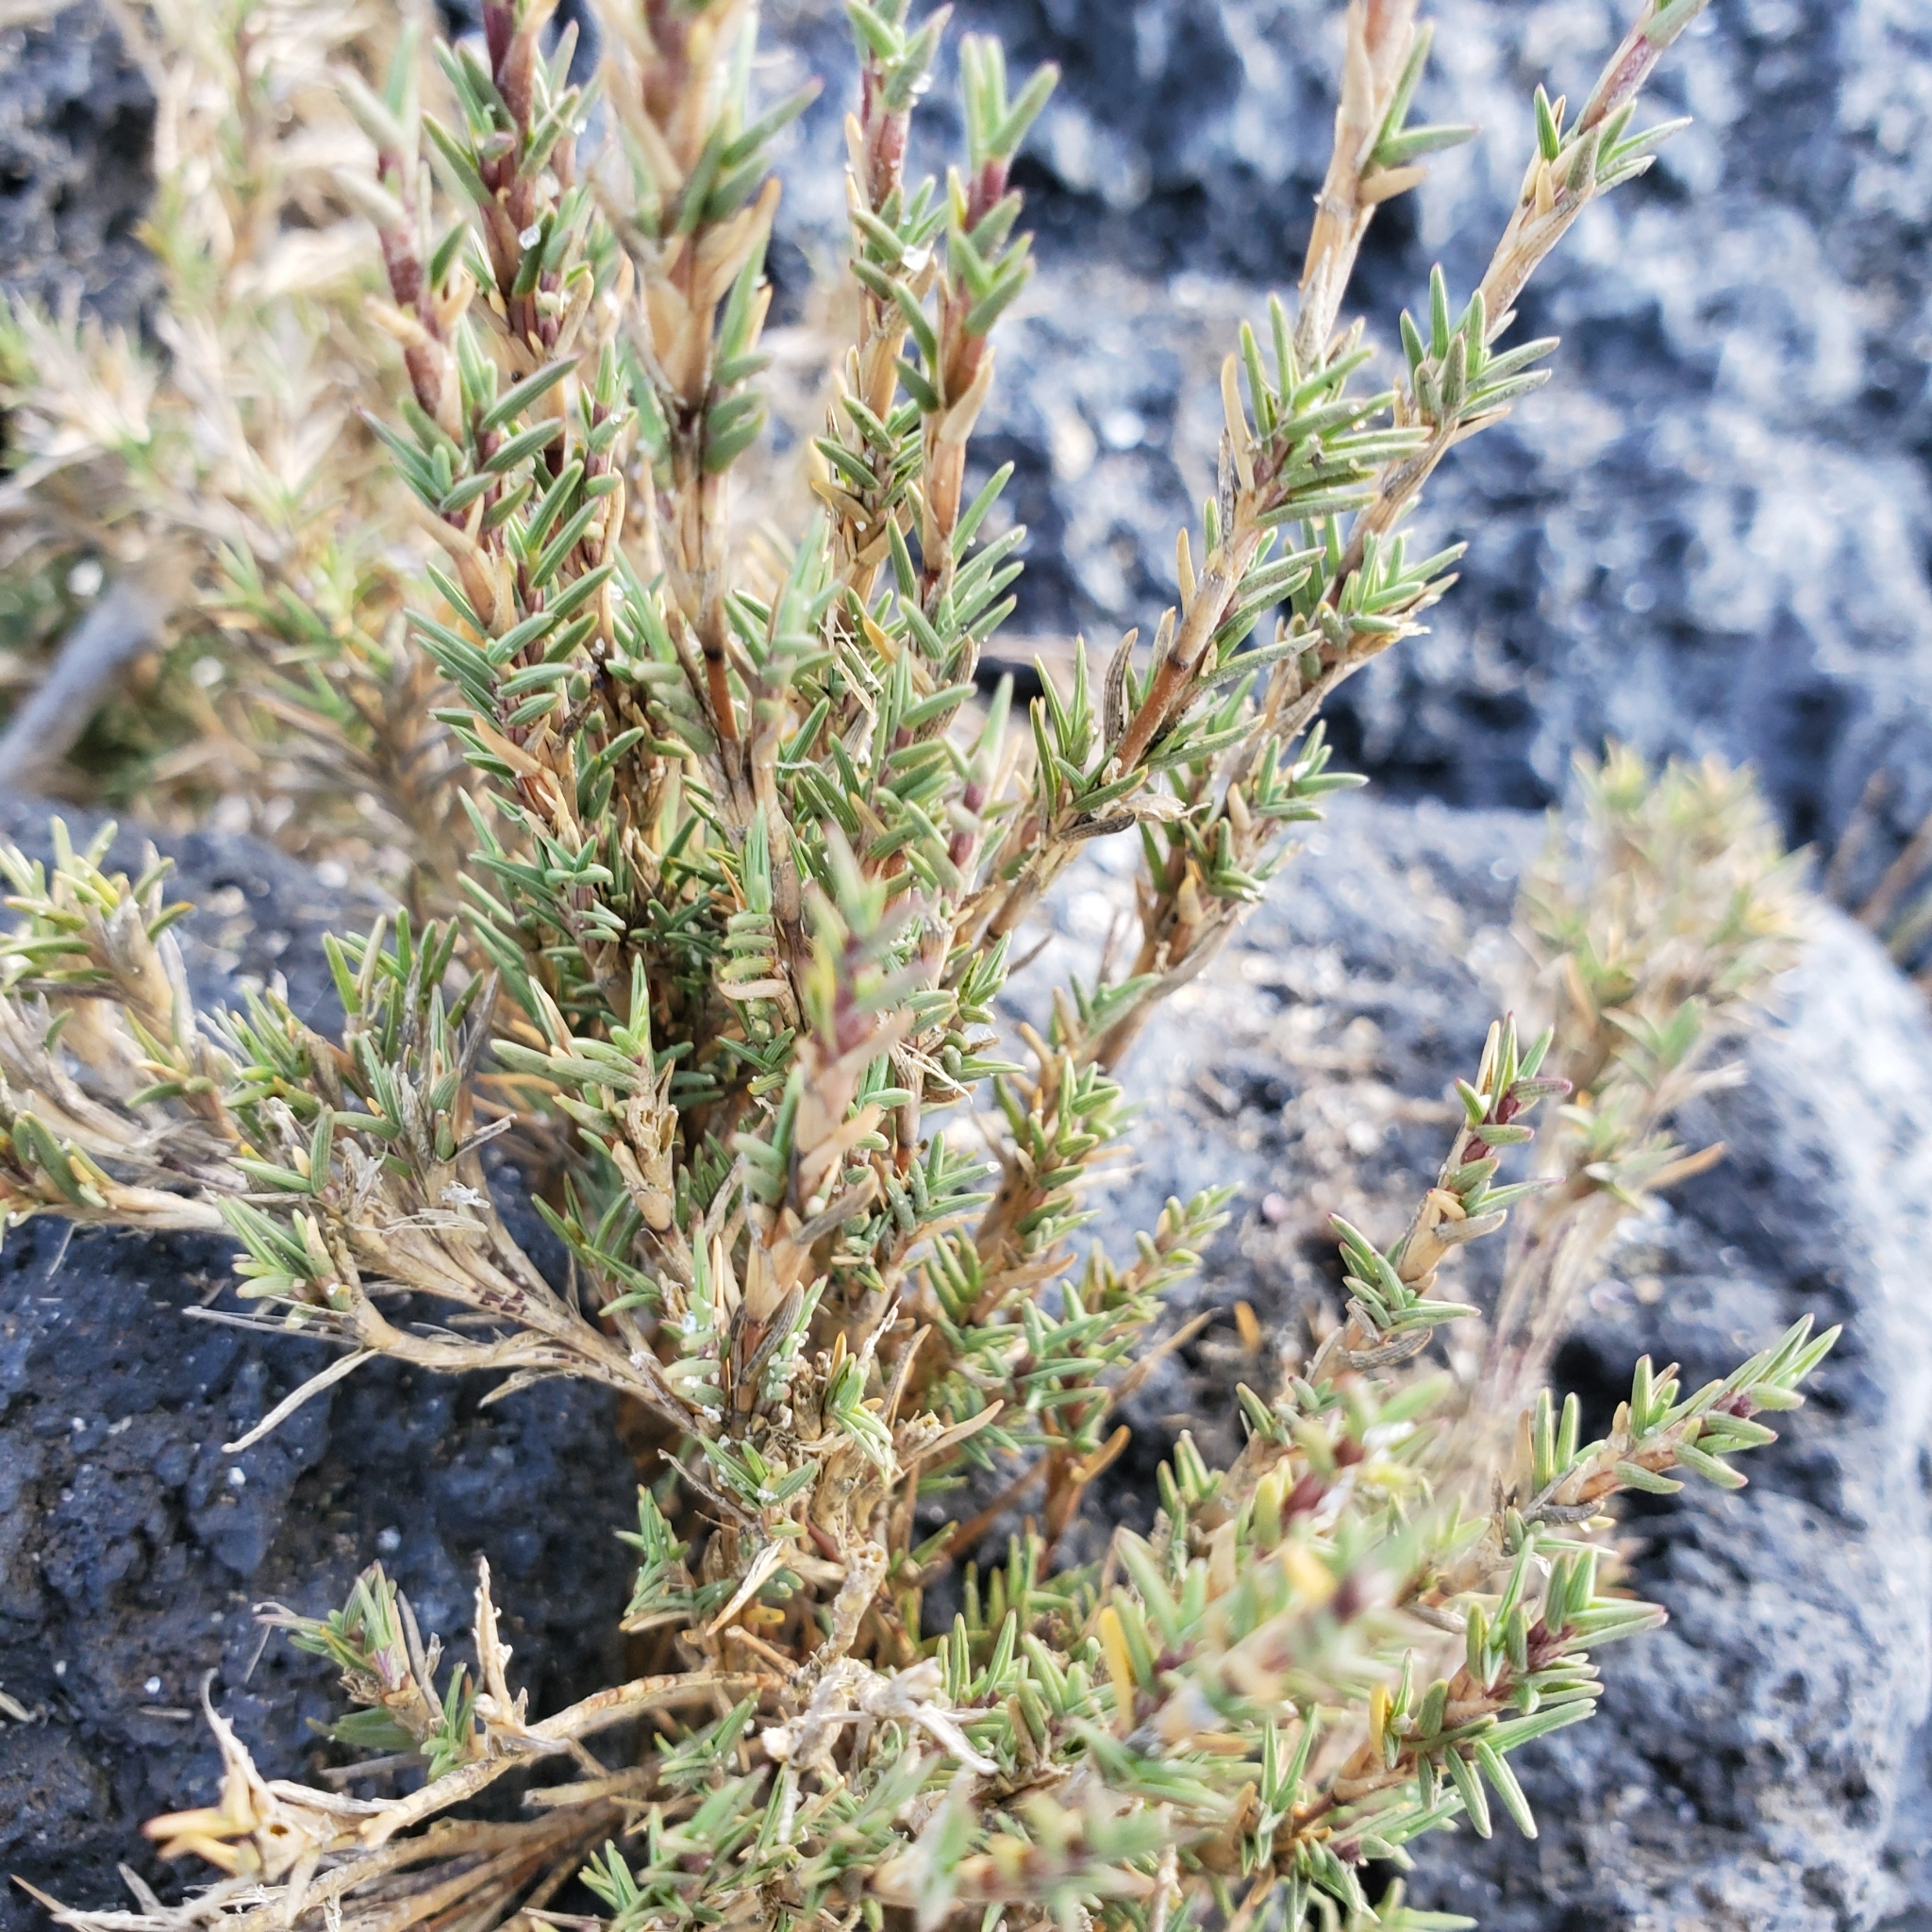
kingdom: Plantae
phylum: Tracheophyta
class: Liliopsida
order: Poales
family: Poaceae
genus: Distichlis
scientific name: Distichlis littoralis
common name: Shore grass
